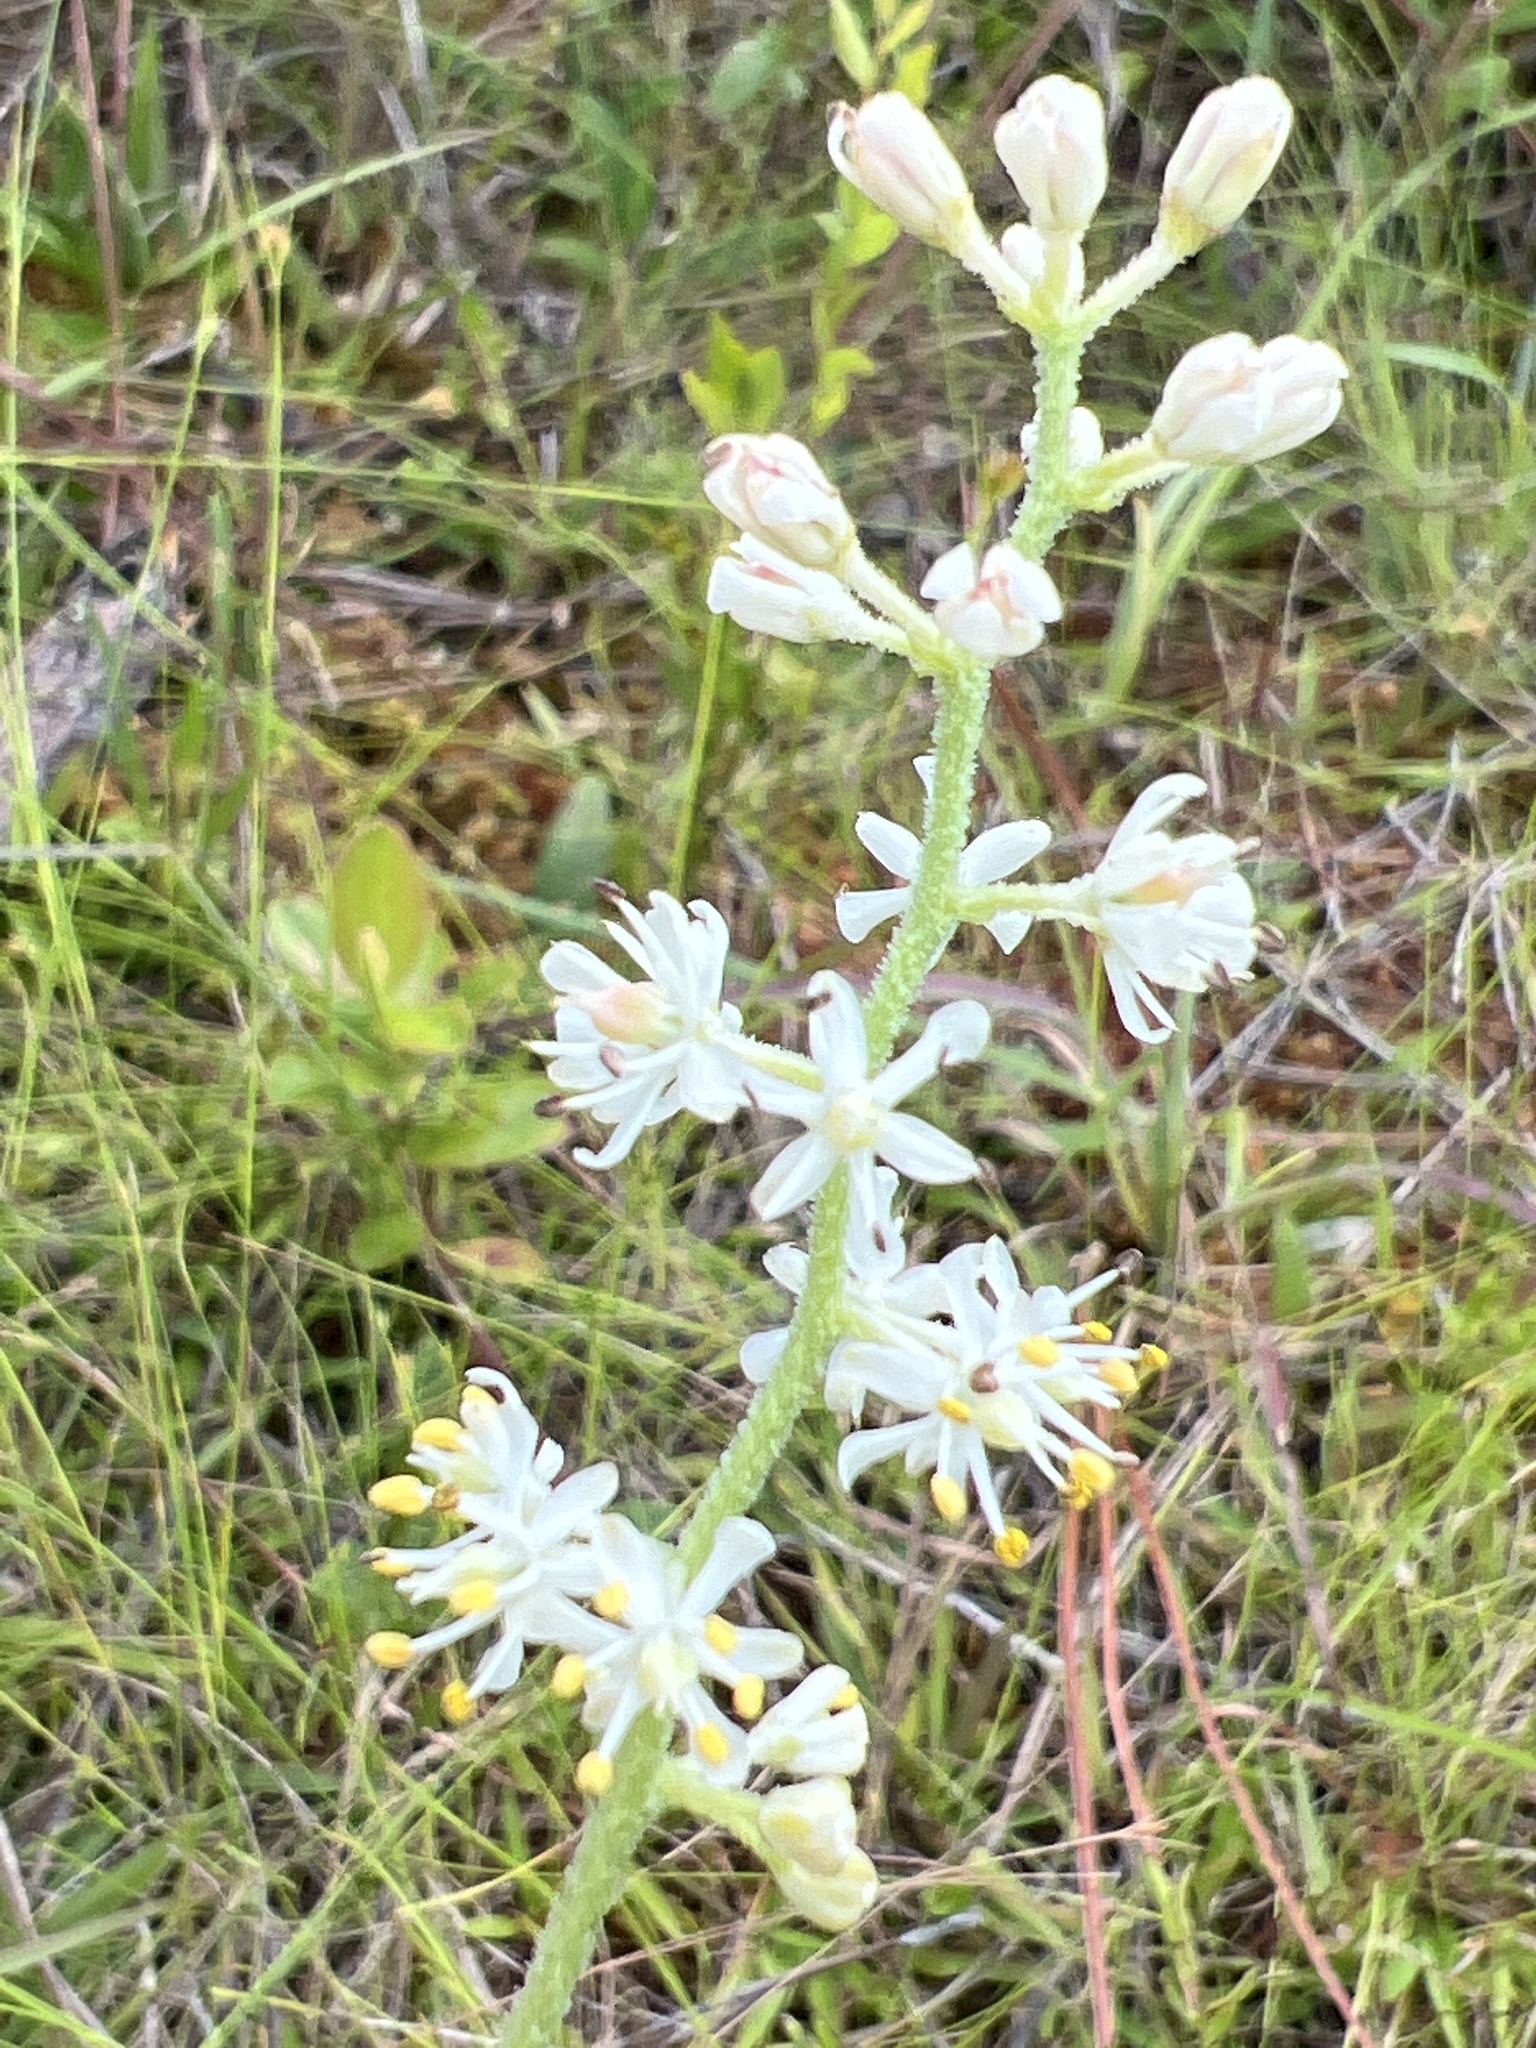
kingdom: Plantae
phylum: Tracheophyta
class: Liliopsida
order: Alismatales
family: Tofieldiaceae
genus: Triantha
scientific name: Triantha racemosa
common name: Coastal false asphodel
